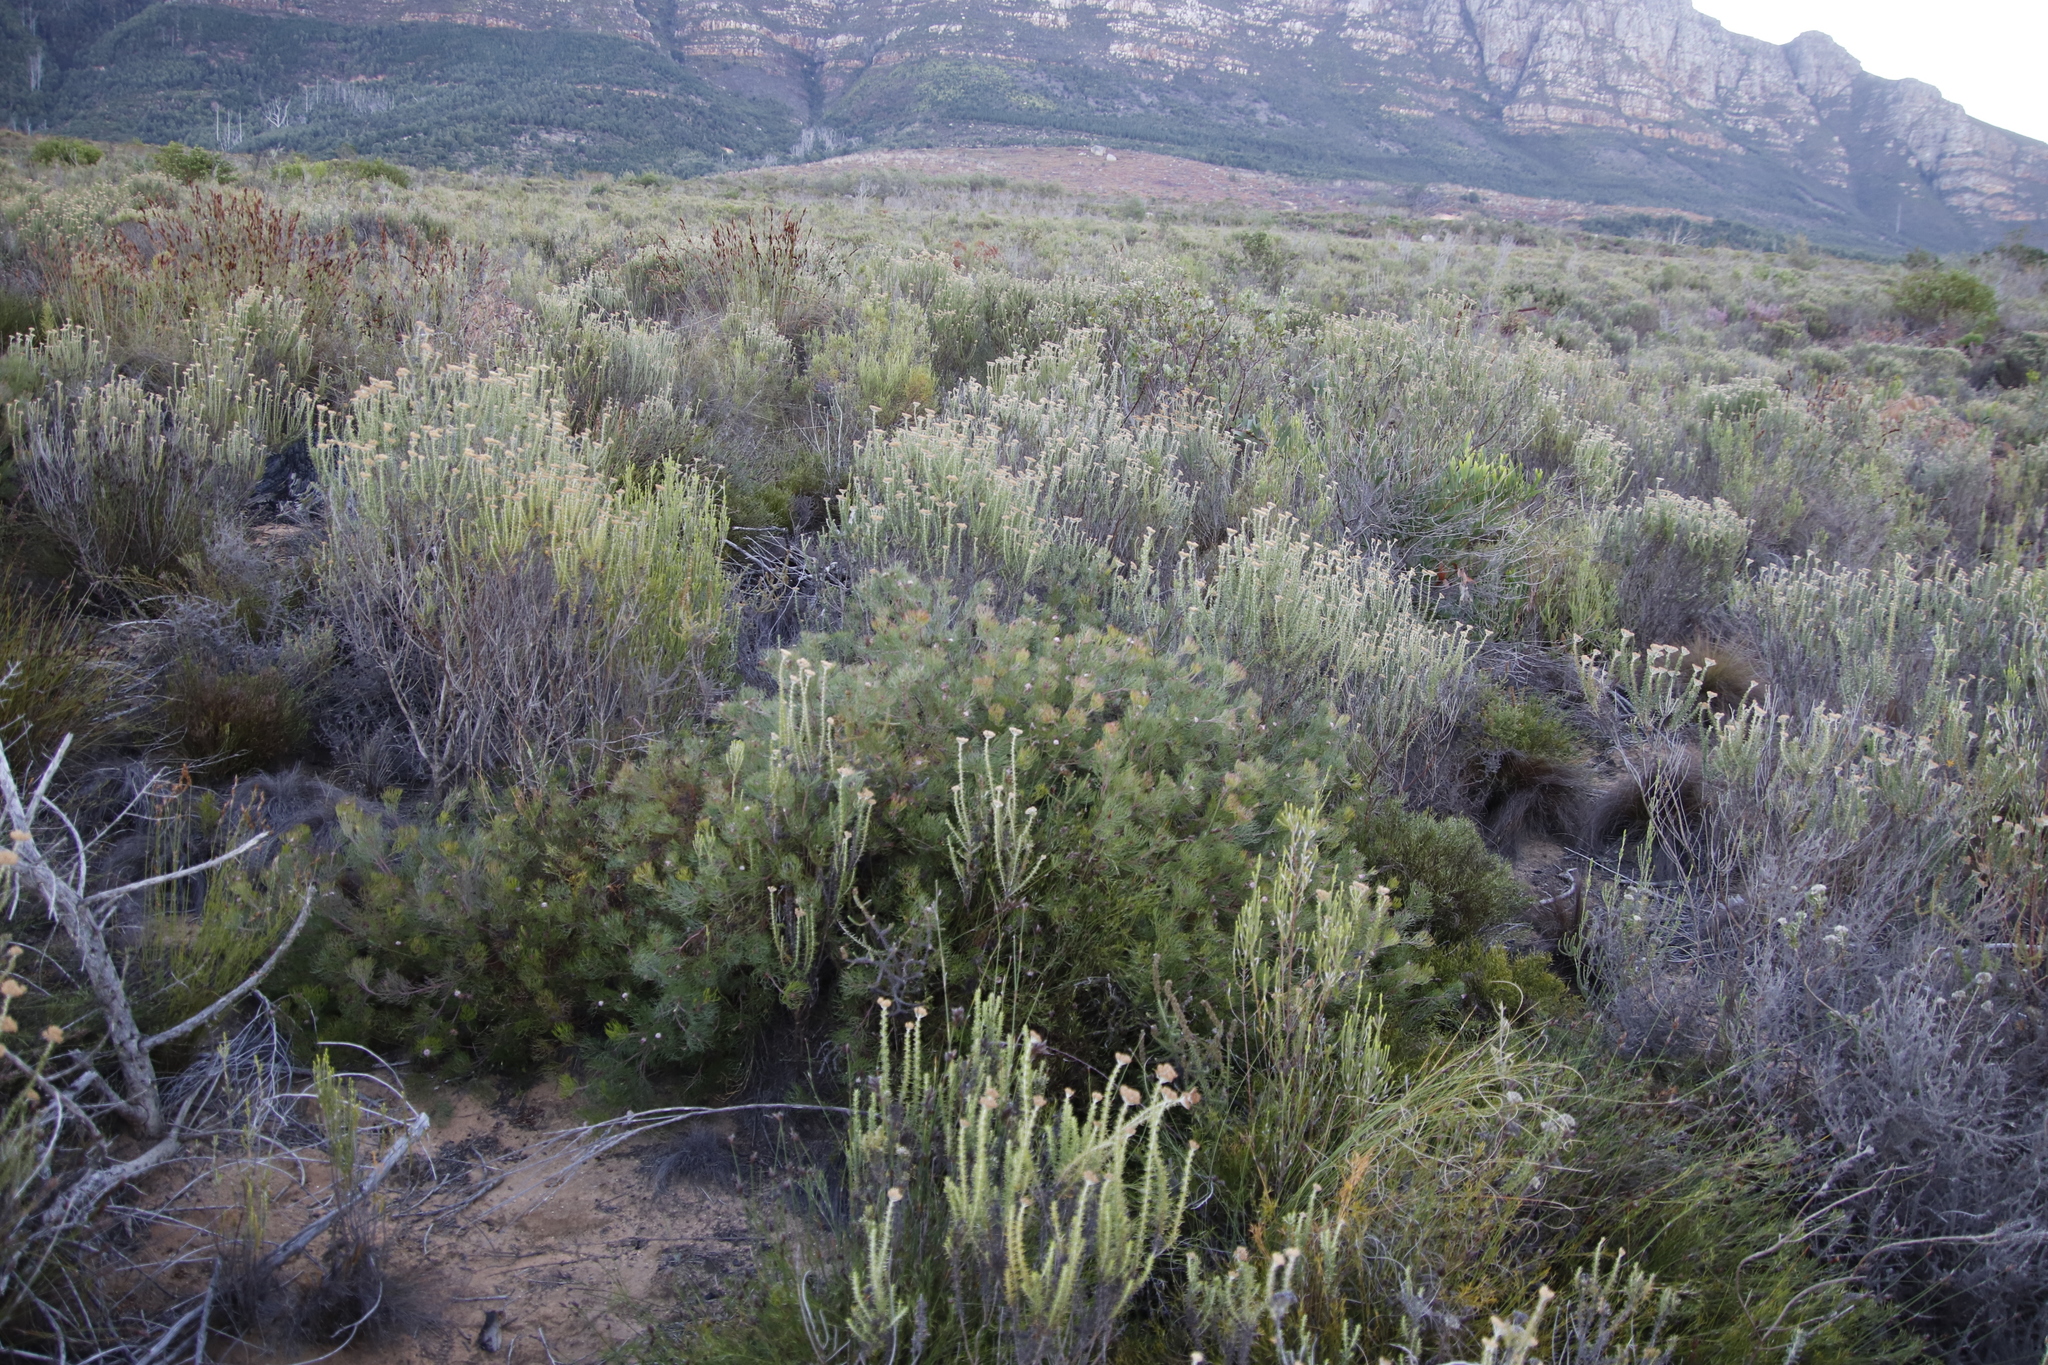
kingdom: Plantae
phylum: Tracheophyta
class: Magnoliopsida
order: Proteales
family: Proteaceae
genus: Serruria
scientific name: Serruria fasciflora
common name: Common pin spiderhead
